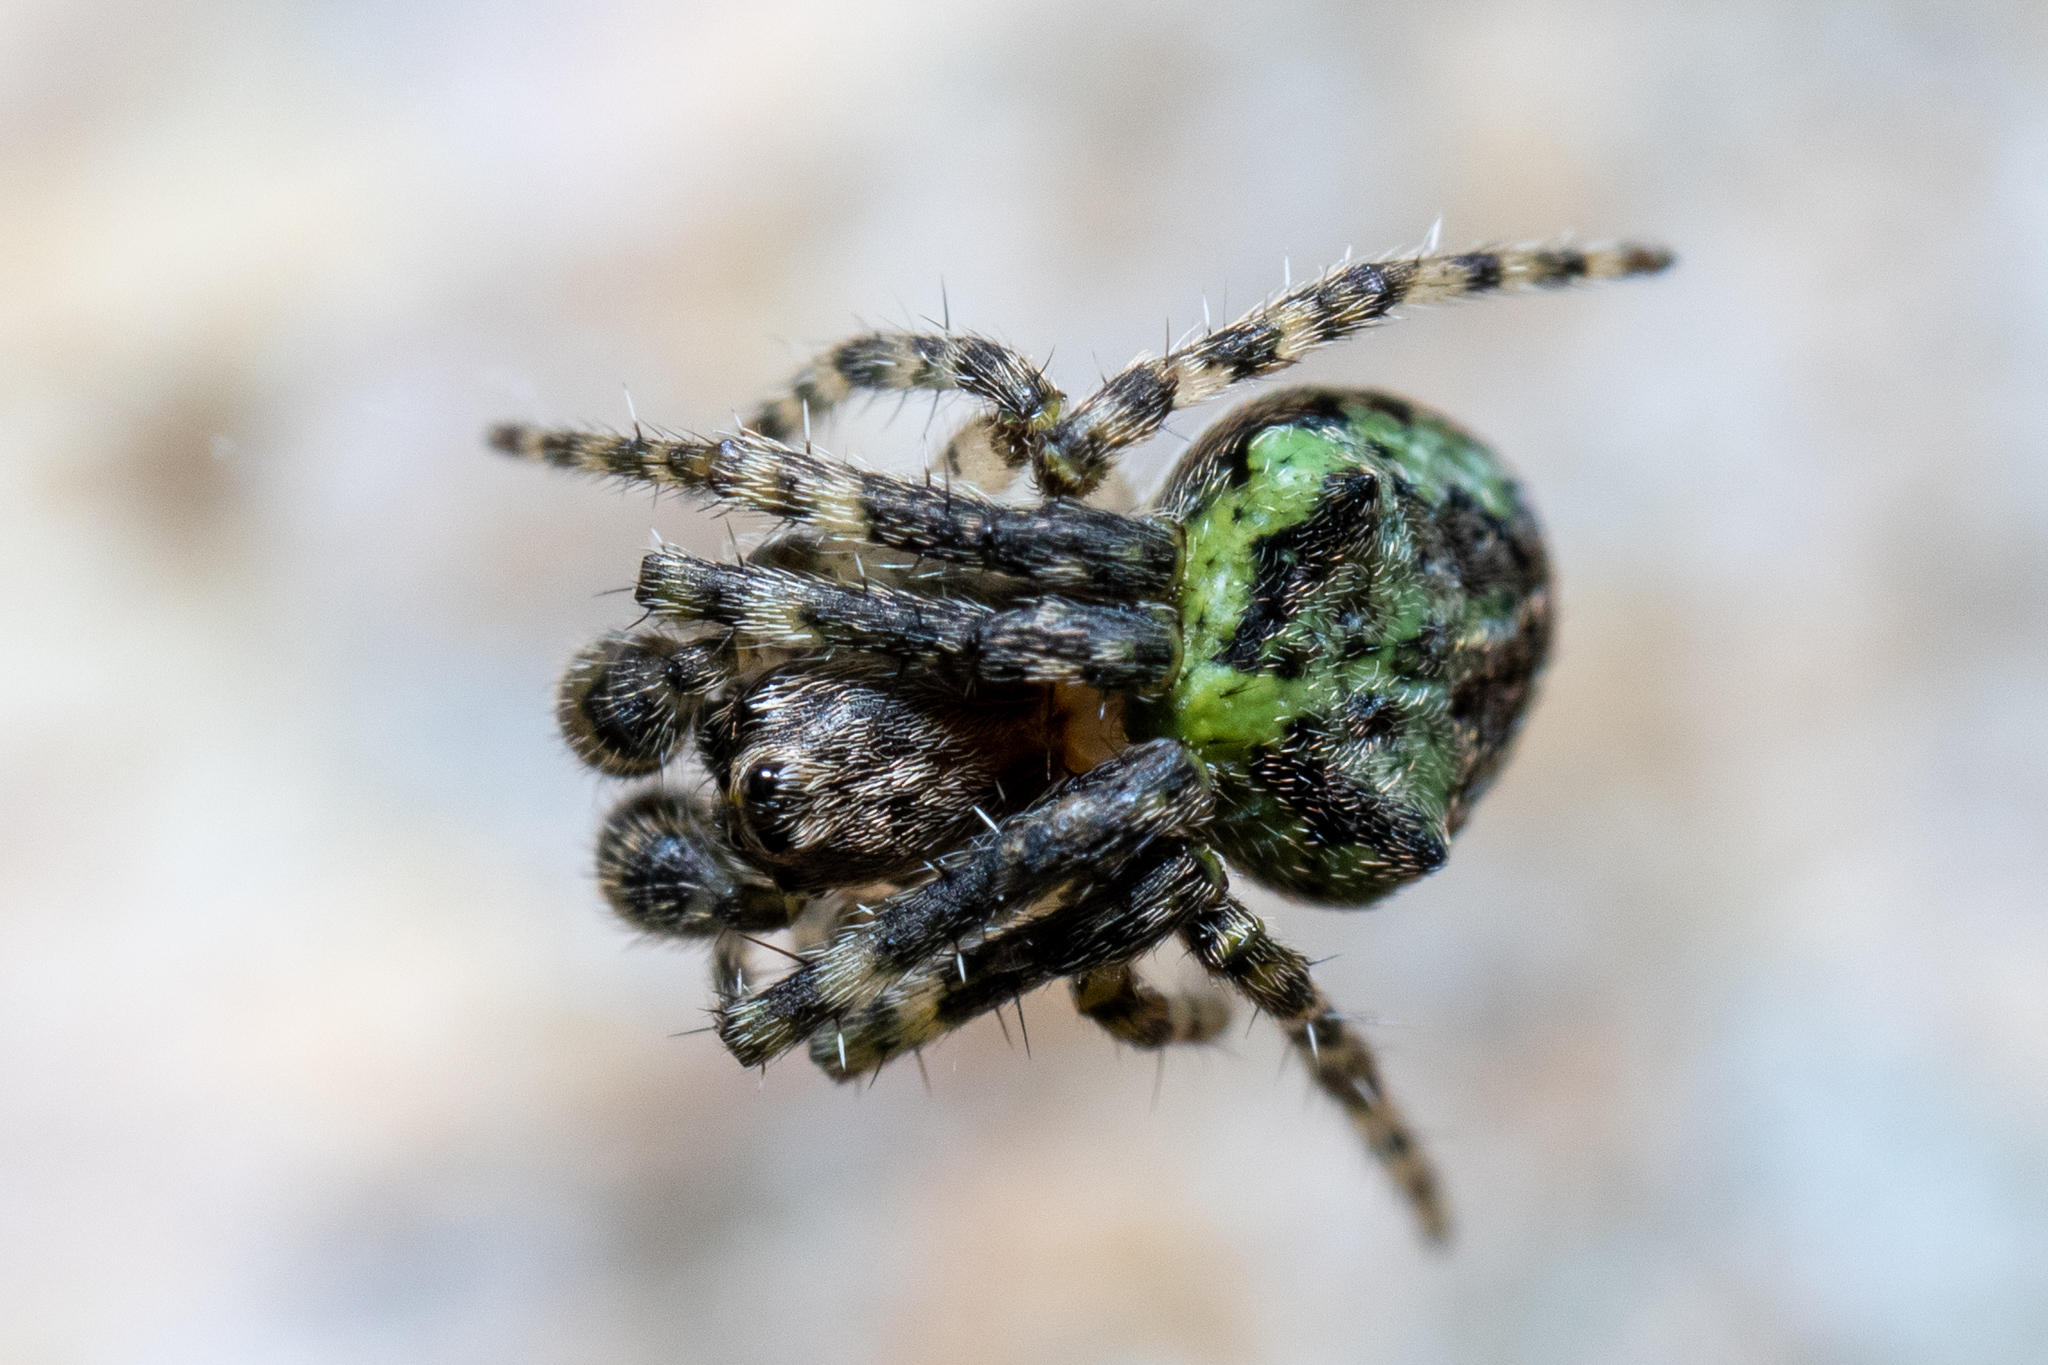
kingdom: Animalia
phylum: Arthropoda
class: Arachnida
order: Araneae
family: Araneidae
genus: Gibbaranea
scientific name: Gibbaranea gibbosa
